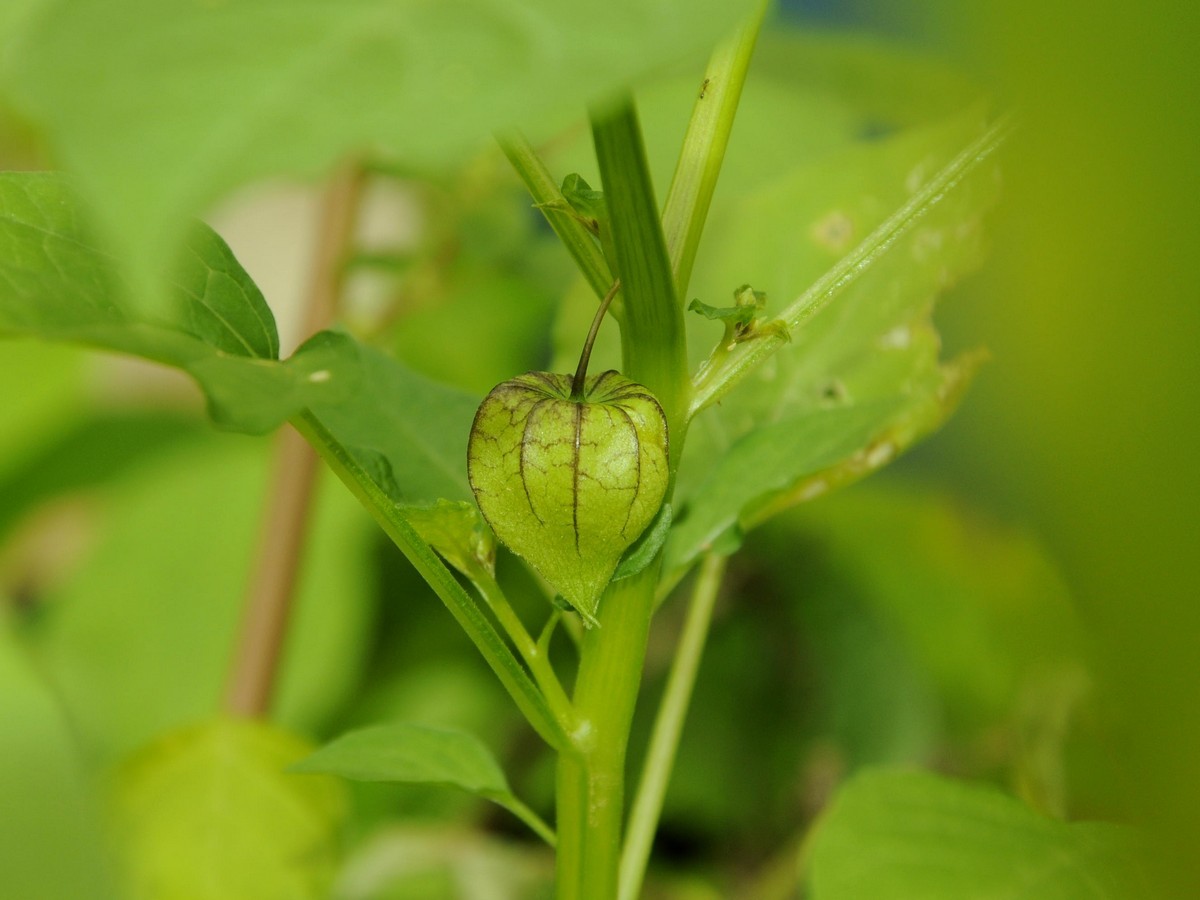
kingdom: Plantae
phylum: Tracheophyta
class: Magnoliopsida
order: Solanales
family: Solanaceae
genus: Physalis
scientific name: Physalis angulata
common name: Angular winter-cherry
